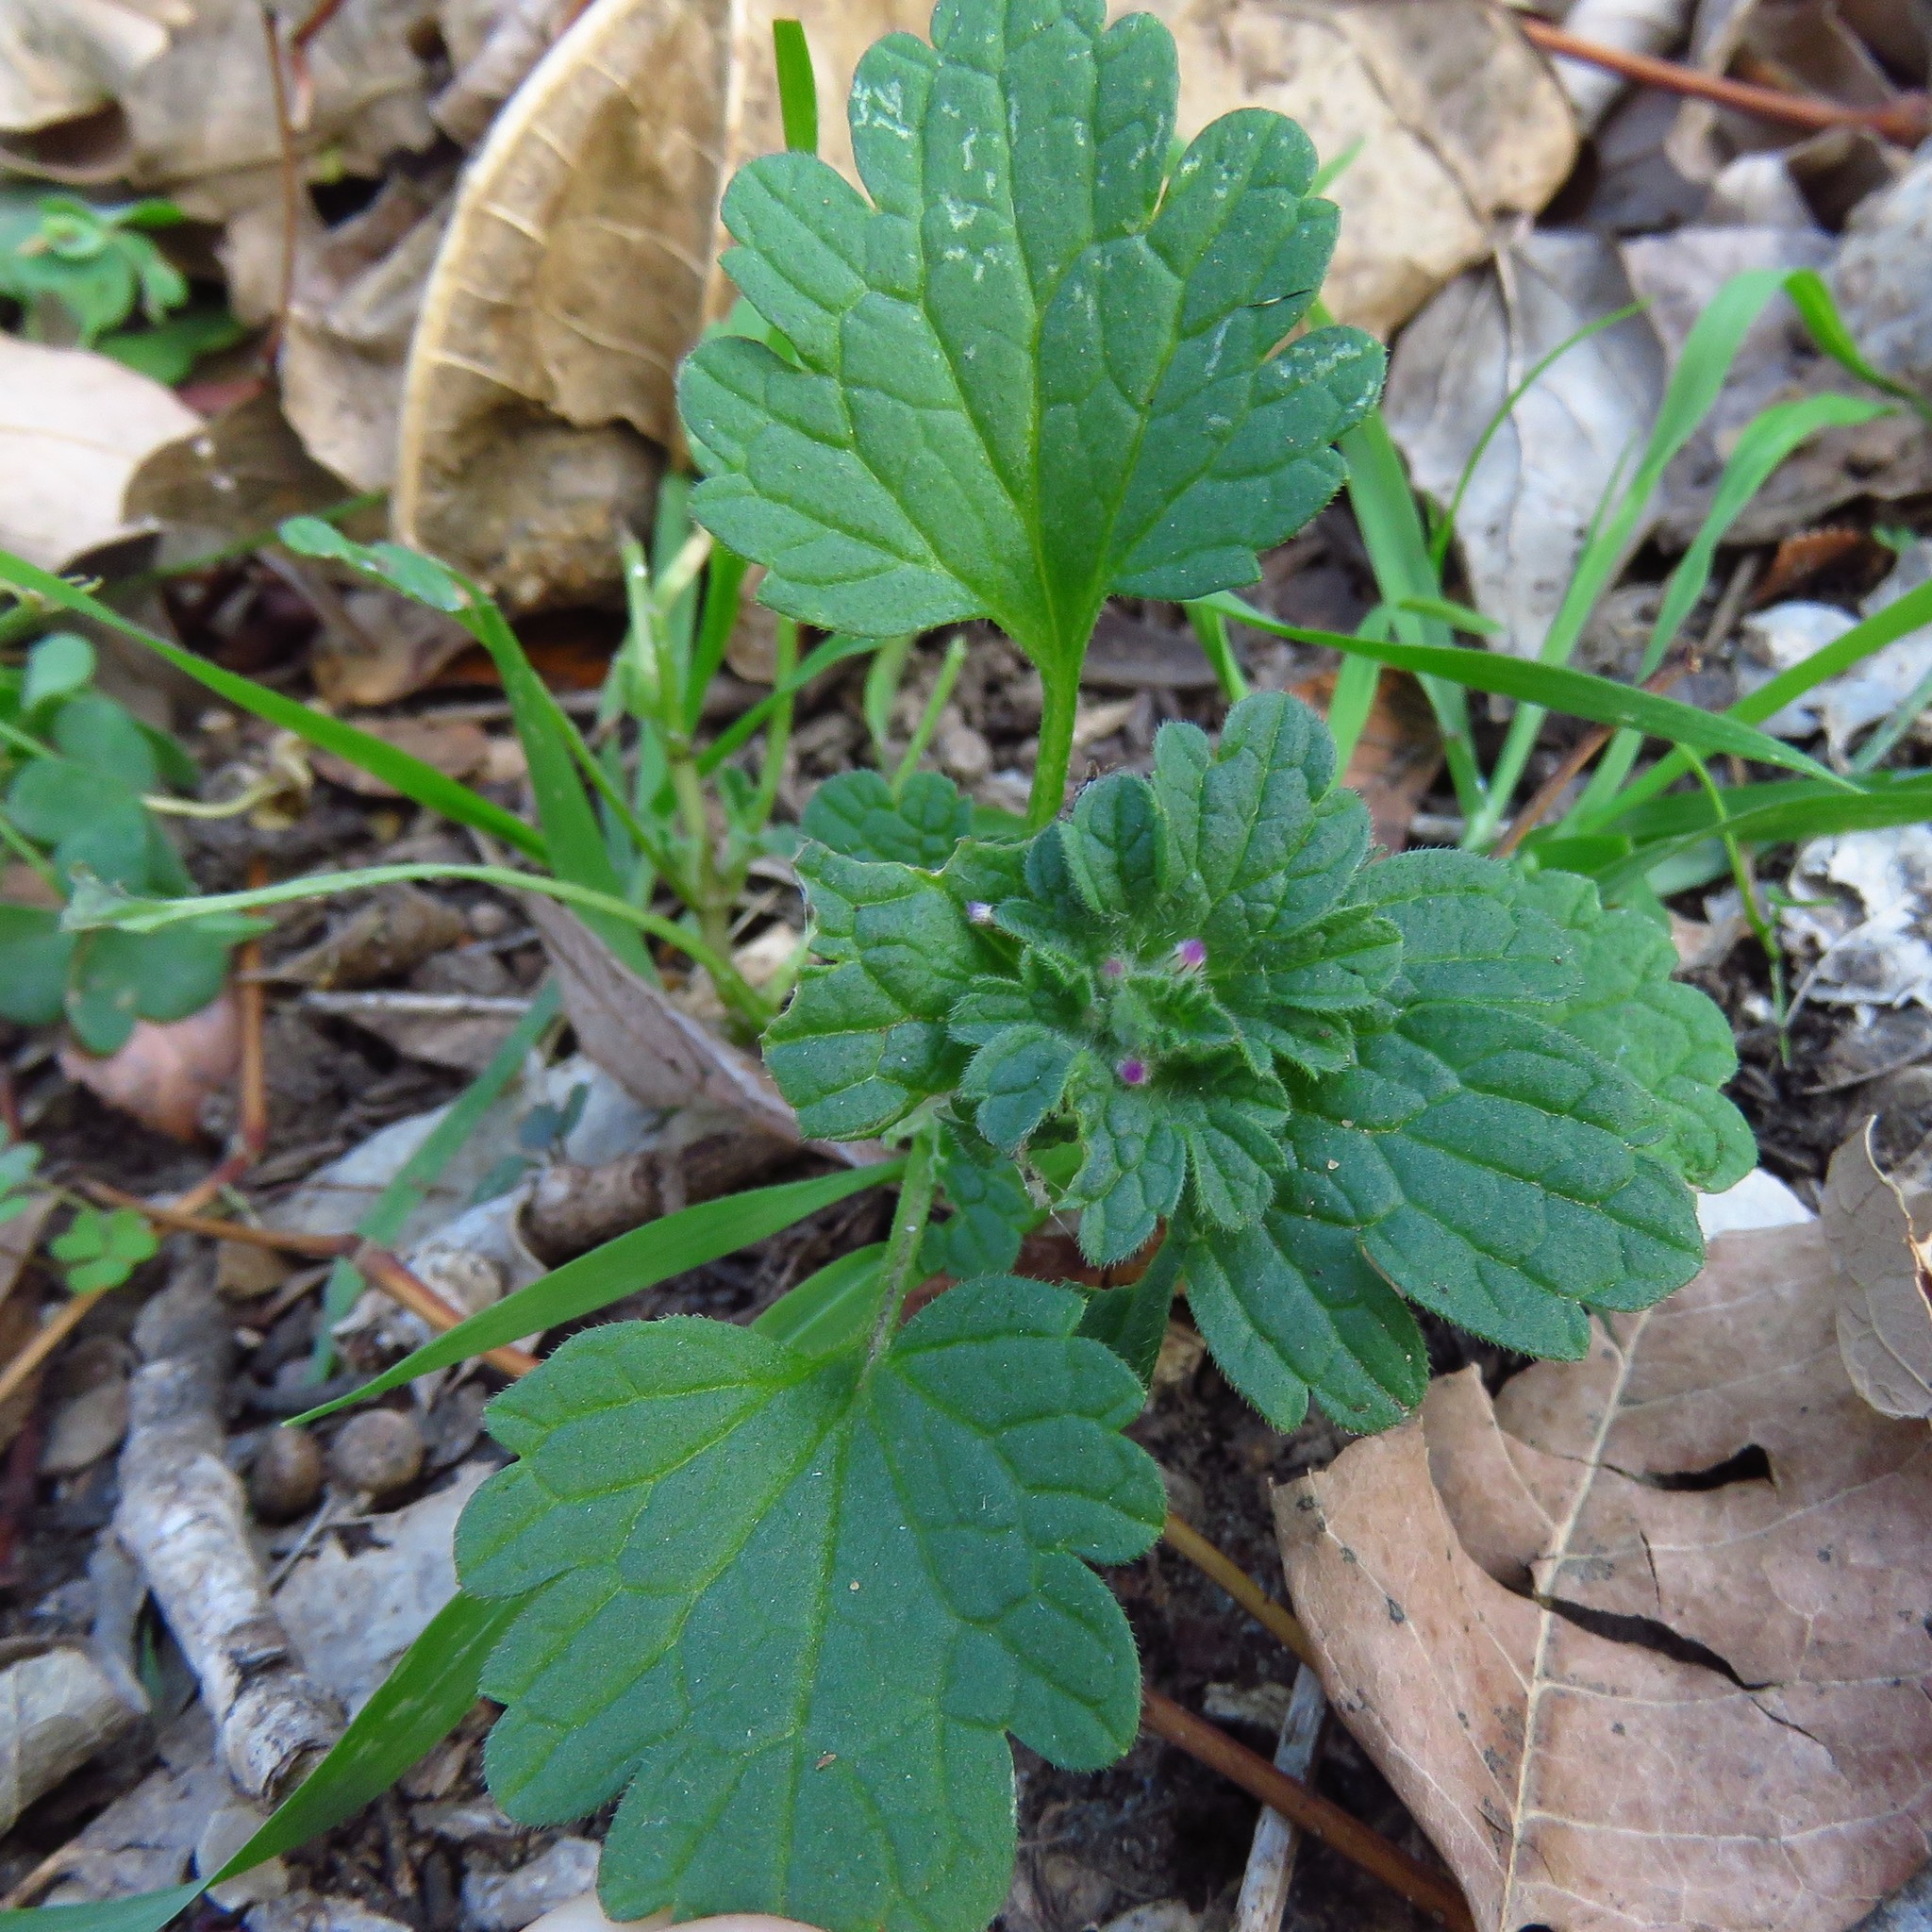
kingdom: Plantae
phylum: Tracheophyta
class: Magnoliopsida
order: Lamiales
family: Lamiaceae
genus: Lamium
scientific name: Lamium amplexicaule
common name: Henbit dead-nettle
